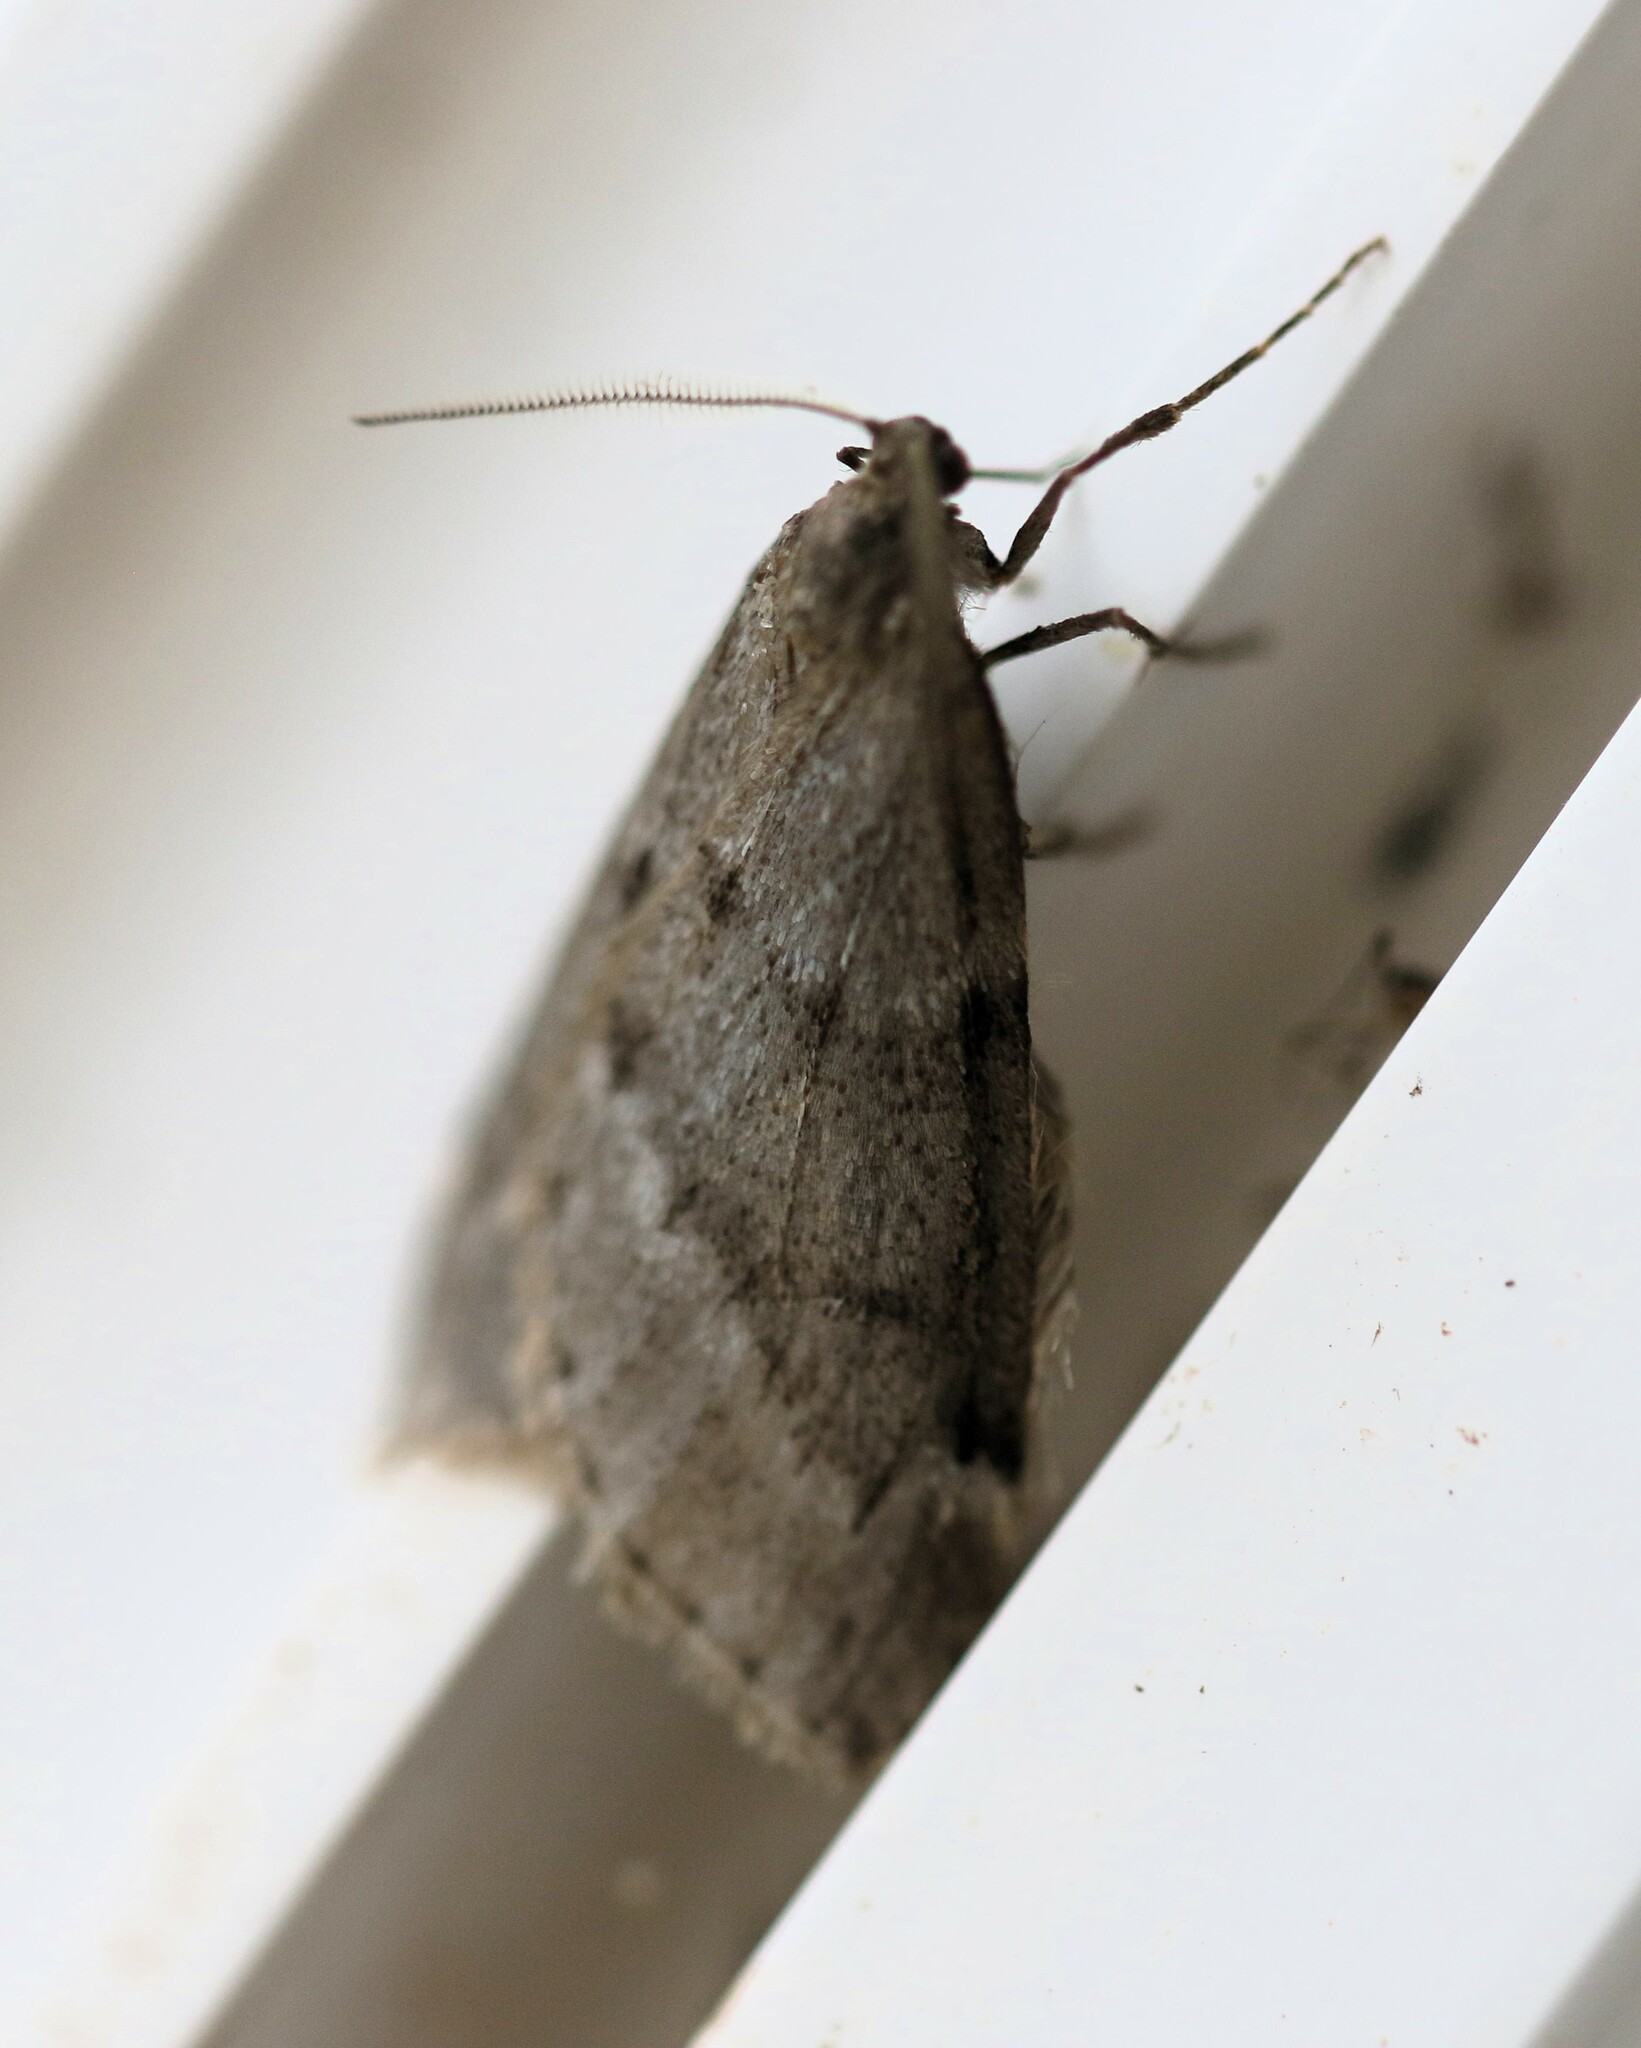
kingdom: Animalia
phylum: Arthropoda
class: Insecta
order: Lepidoptera
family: Geometridae
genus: Alsophila
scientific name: Alsophila pometaria
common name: Fall cankerworm
